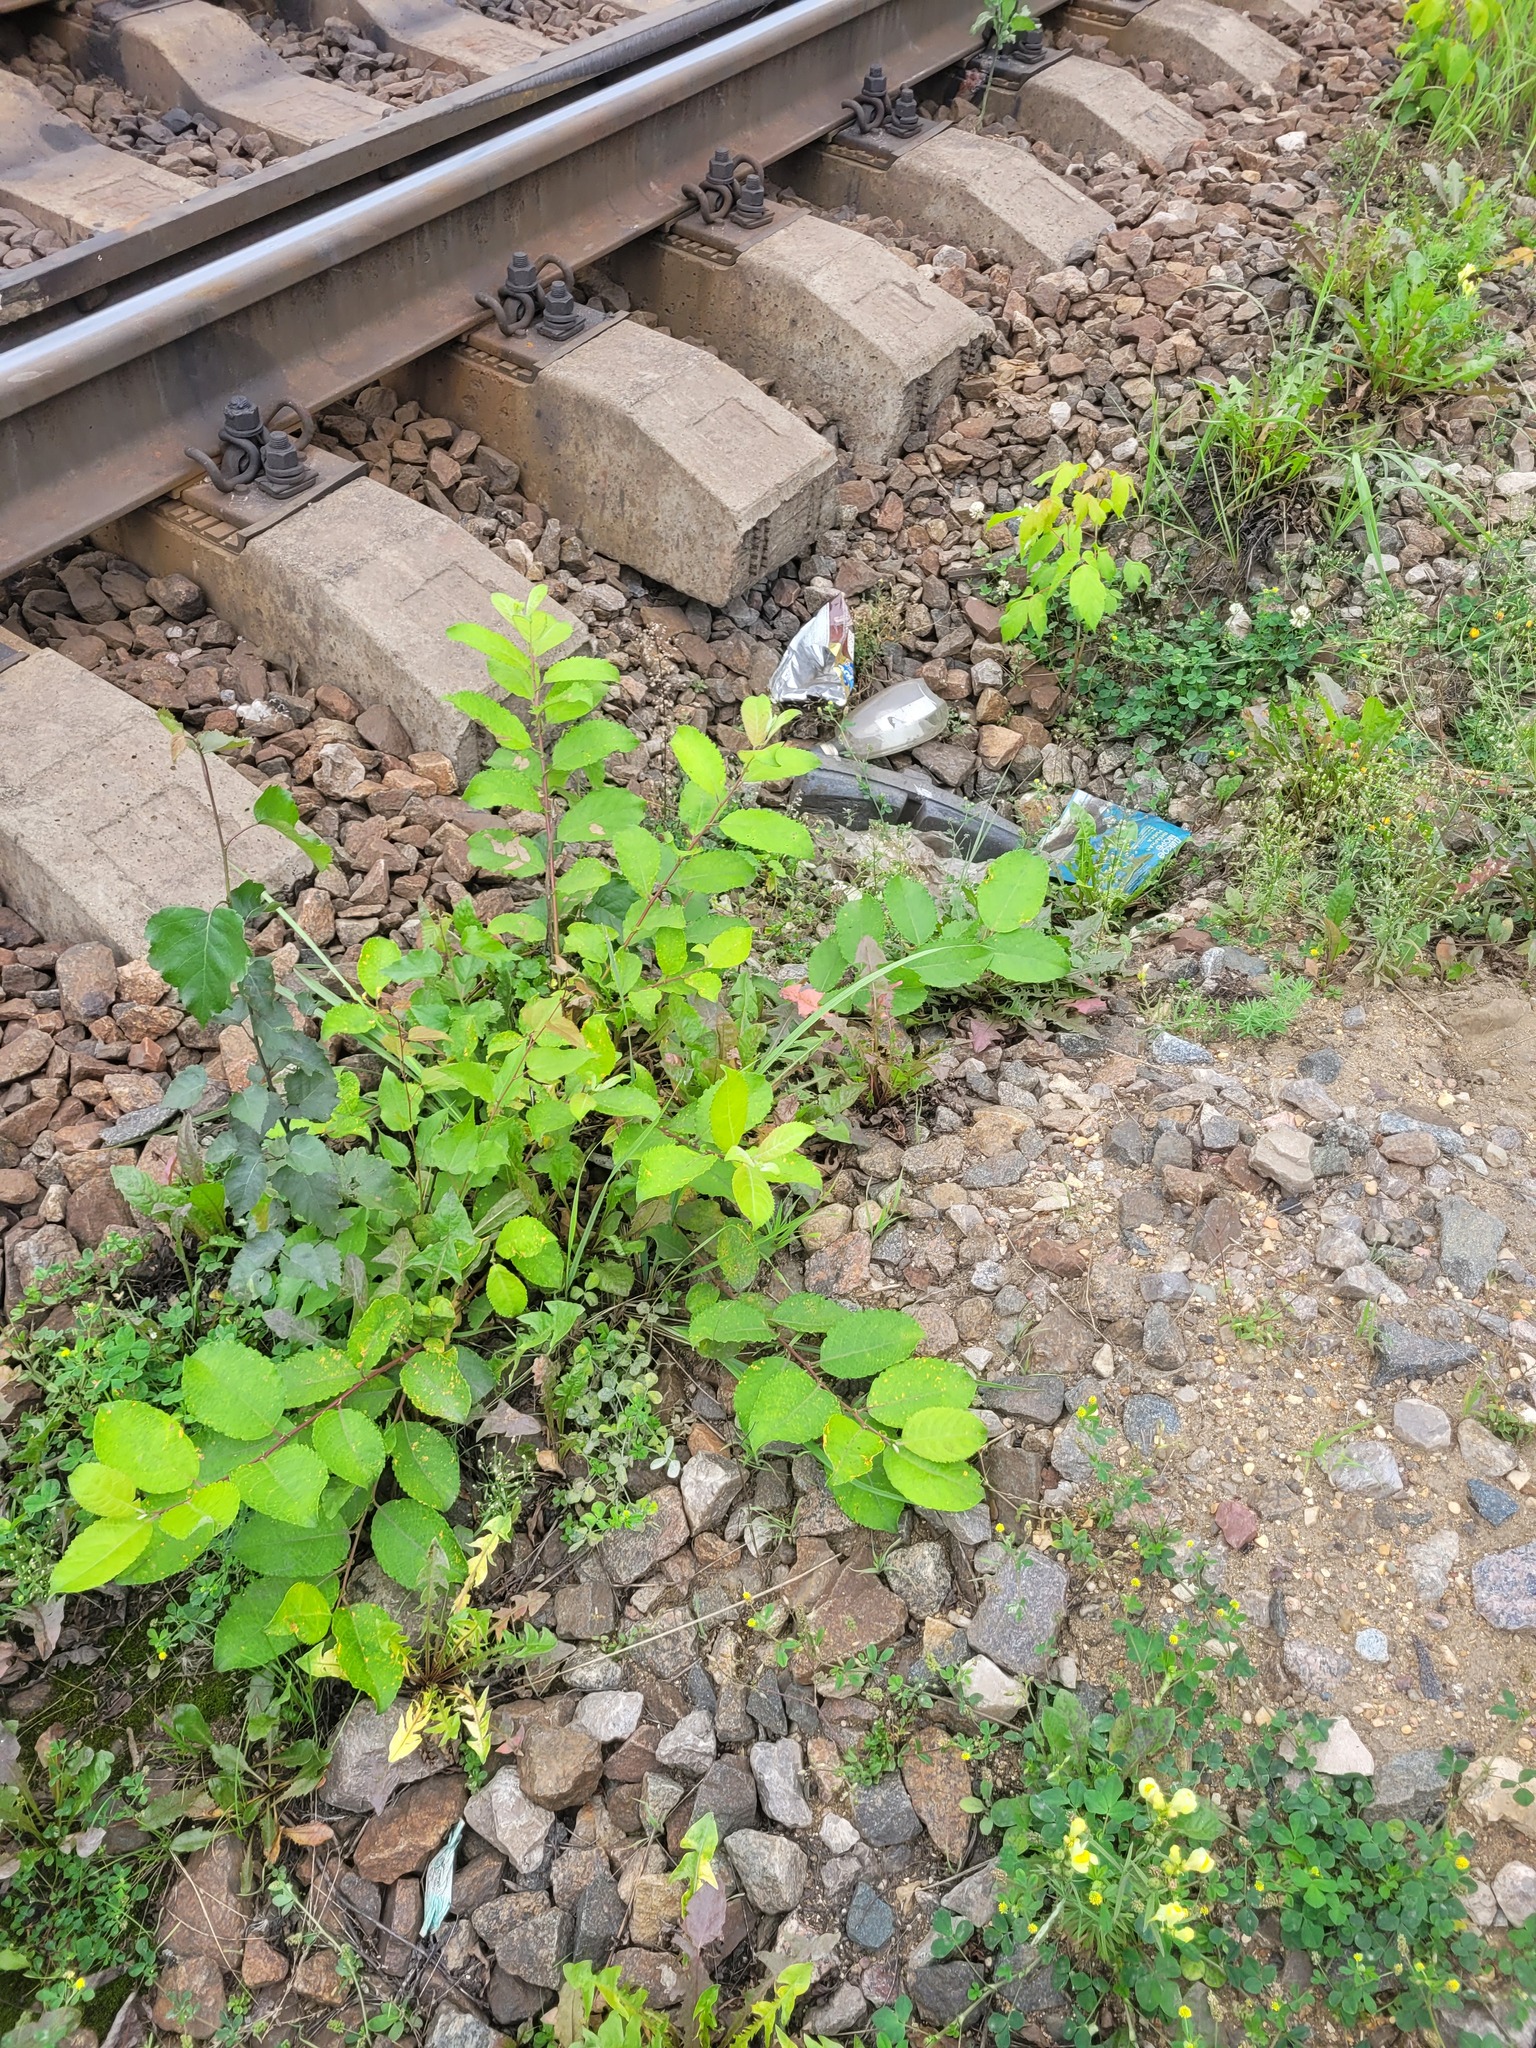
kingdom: Plantae
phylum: Tracheophyta
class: Magnoliopsida
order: Malpighiales
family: Salicaceae
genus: Salix
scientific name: Salix caprea
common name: Goat willow
